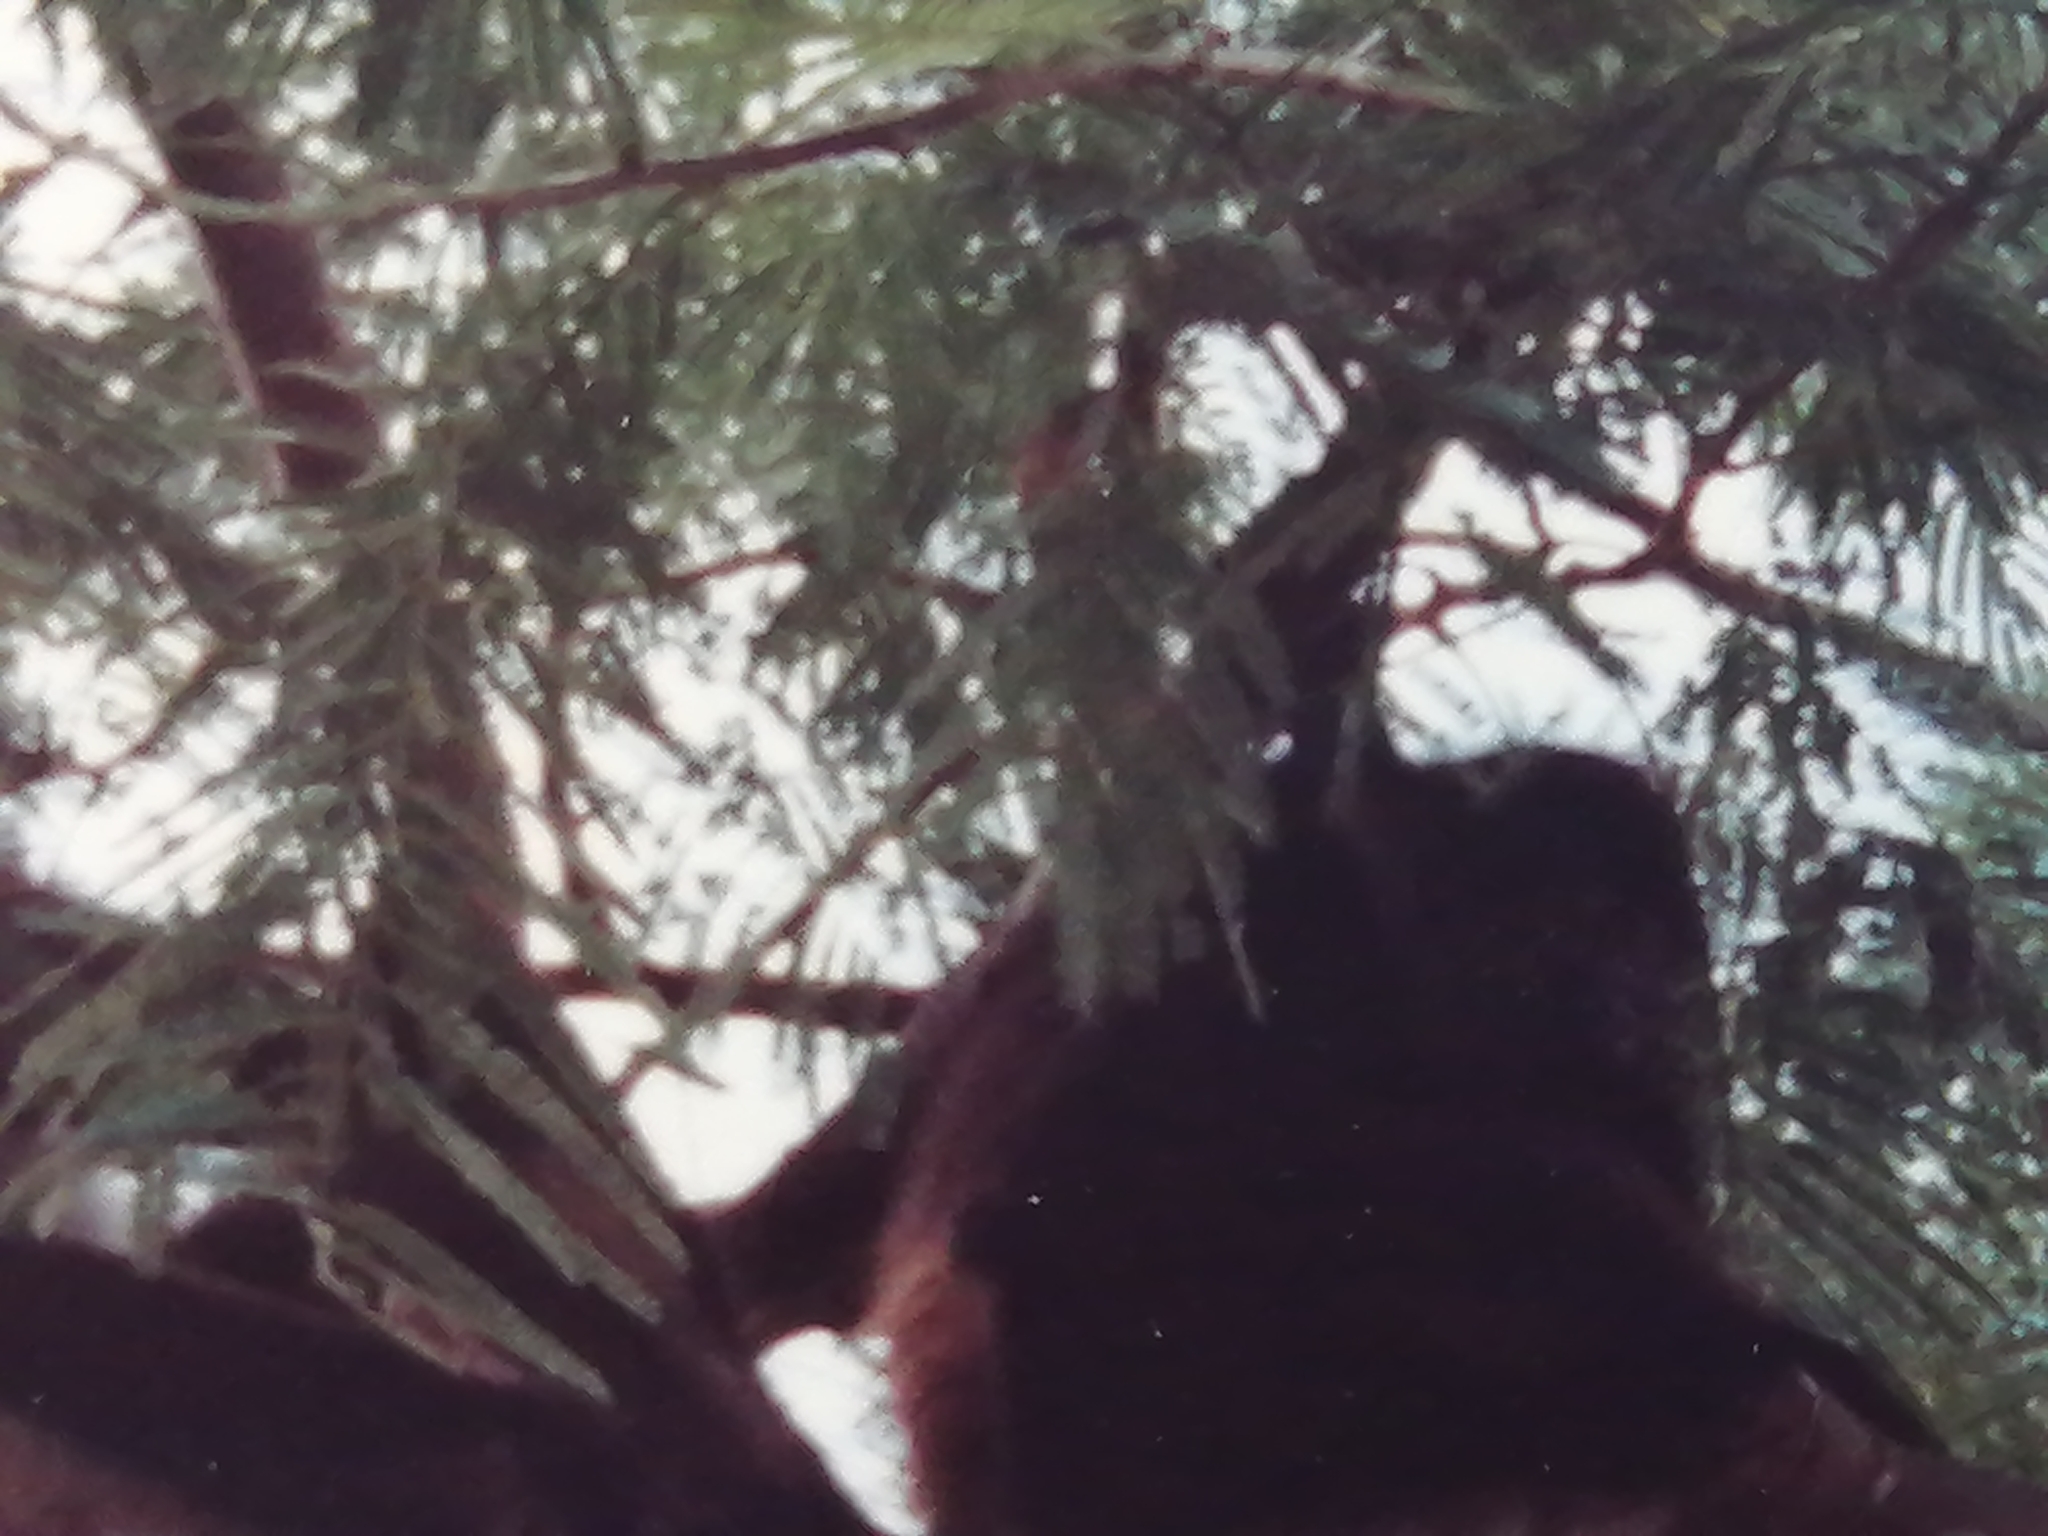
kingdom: Animalia
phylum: Chordata
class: Mammalia
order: Primates
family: Atelidae
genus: Ateles
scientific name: Ateles geoffroyi
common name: Black-handed spider monkey
